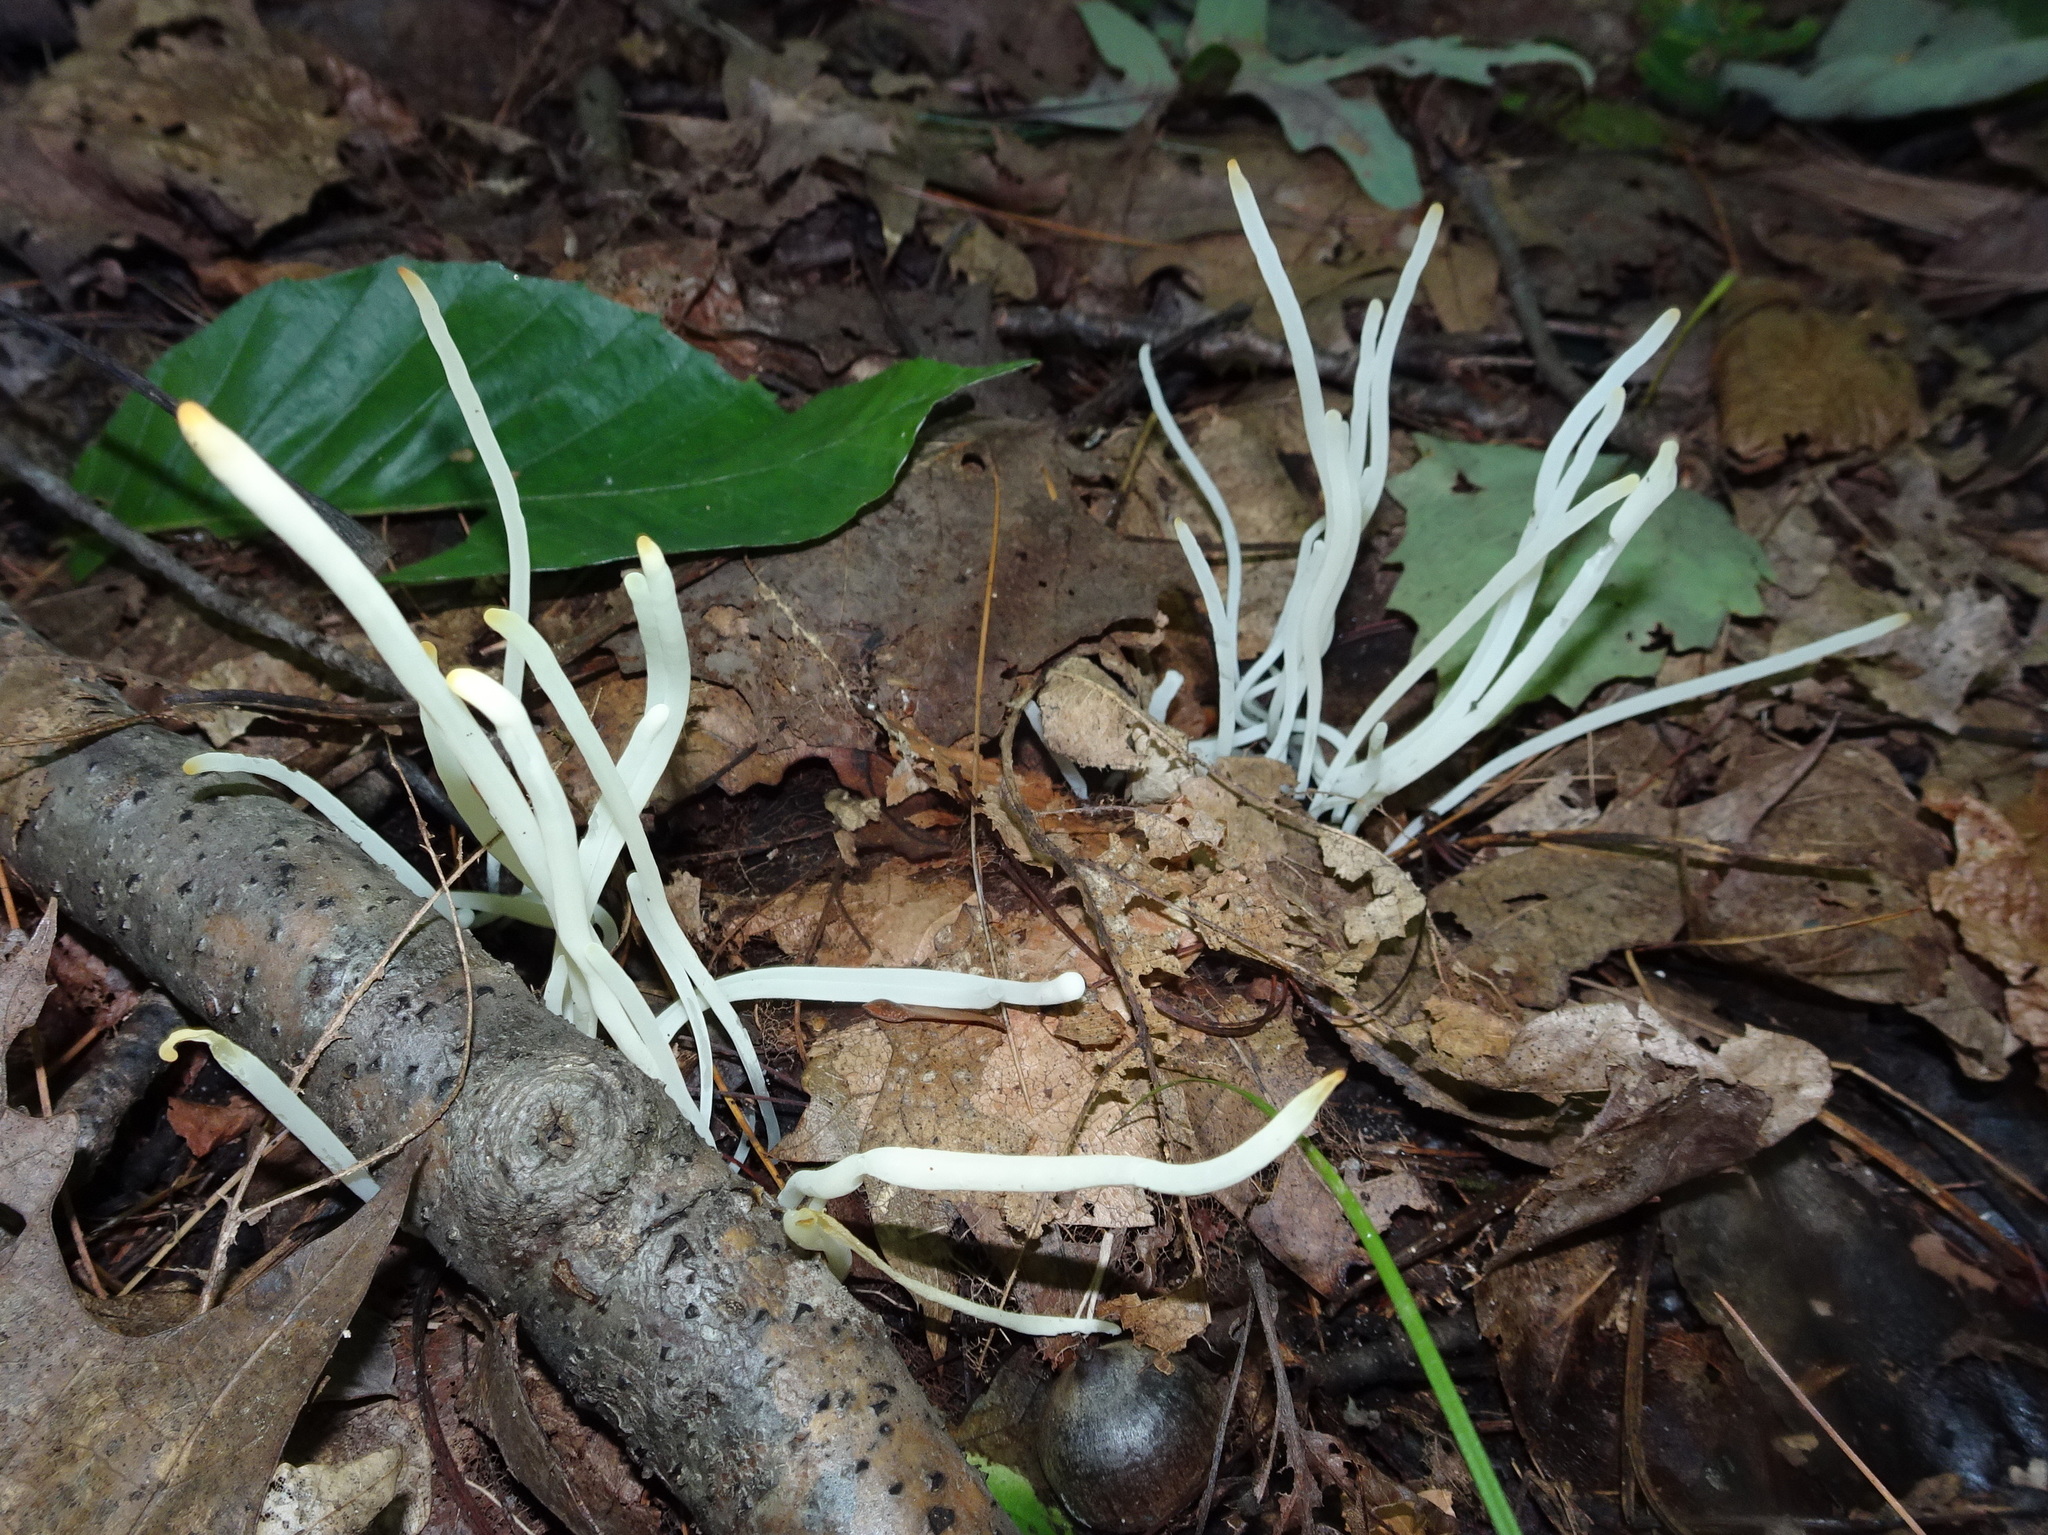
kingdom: Fungi
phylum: Basidiomycota
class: Agaricomycetes
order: Agaricales
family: Clavariaceae
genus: Clavaria
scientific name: Clavaria fragilis
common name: White spindles
